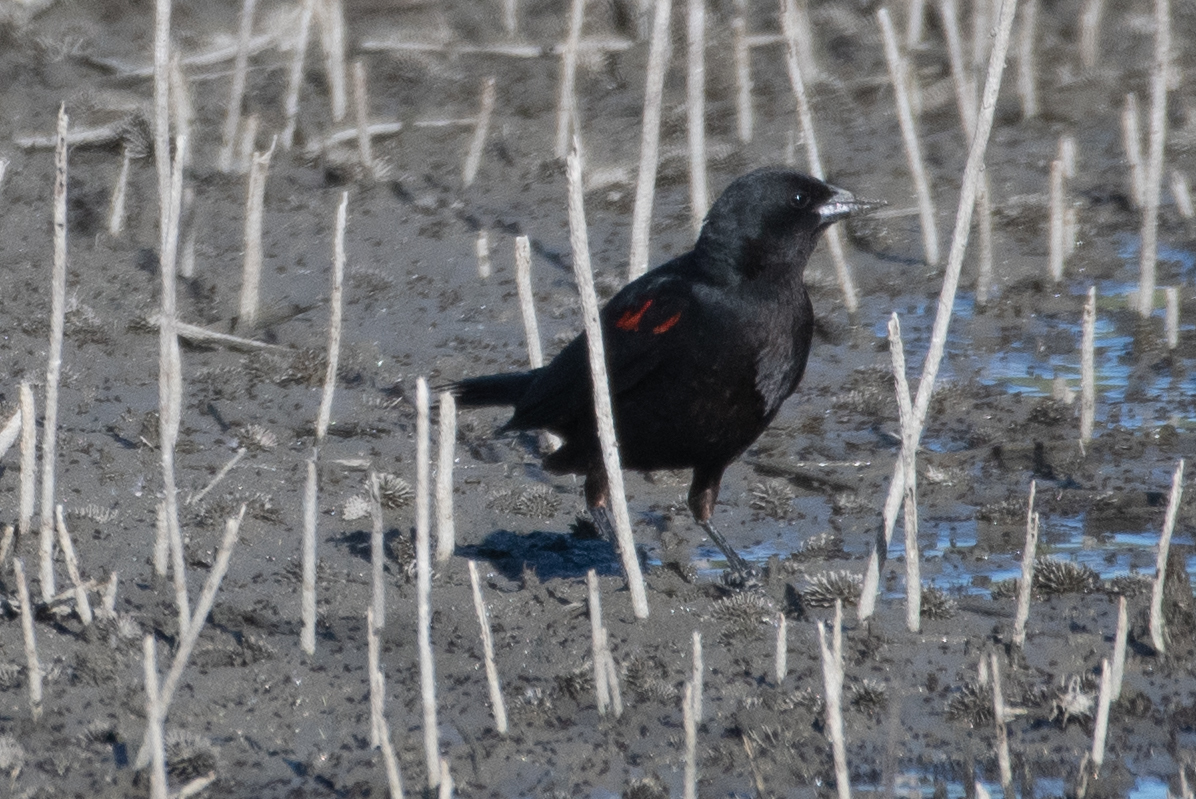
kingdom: Animalia
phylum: Chordata
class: Aves
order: Passeriformes
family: Icteridae
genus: Agelaius
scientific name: Agelaius phoeniceus
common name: Red-winged blackbird
